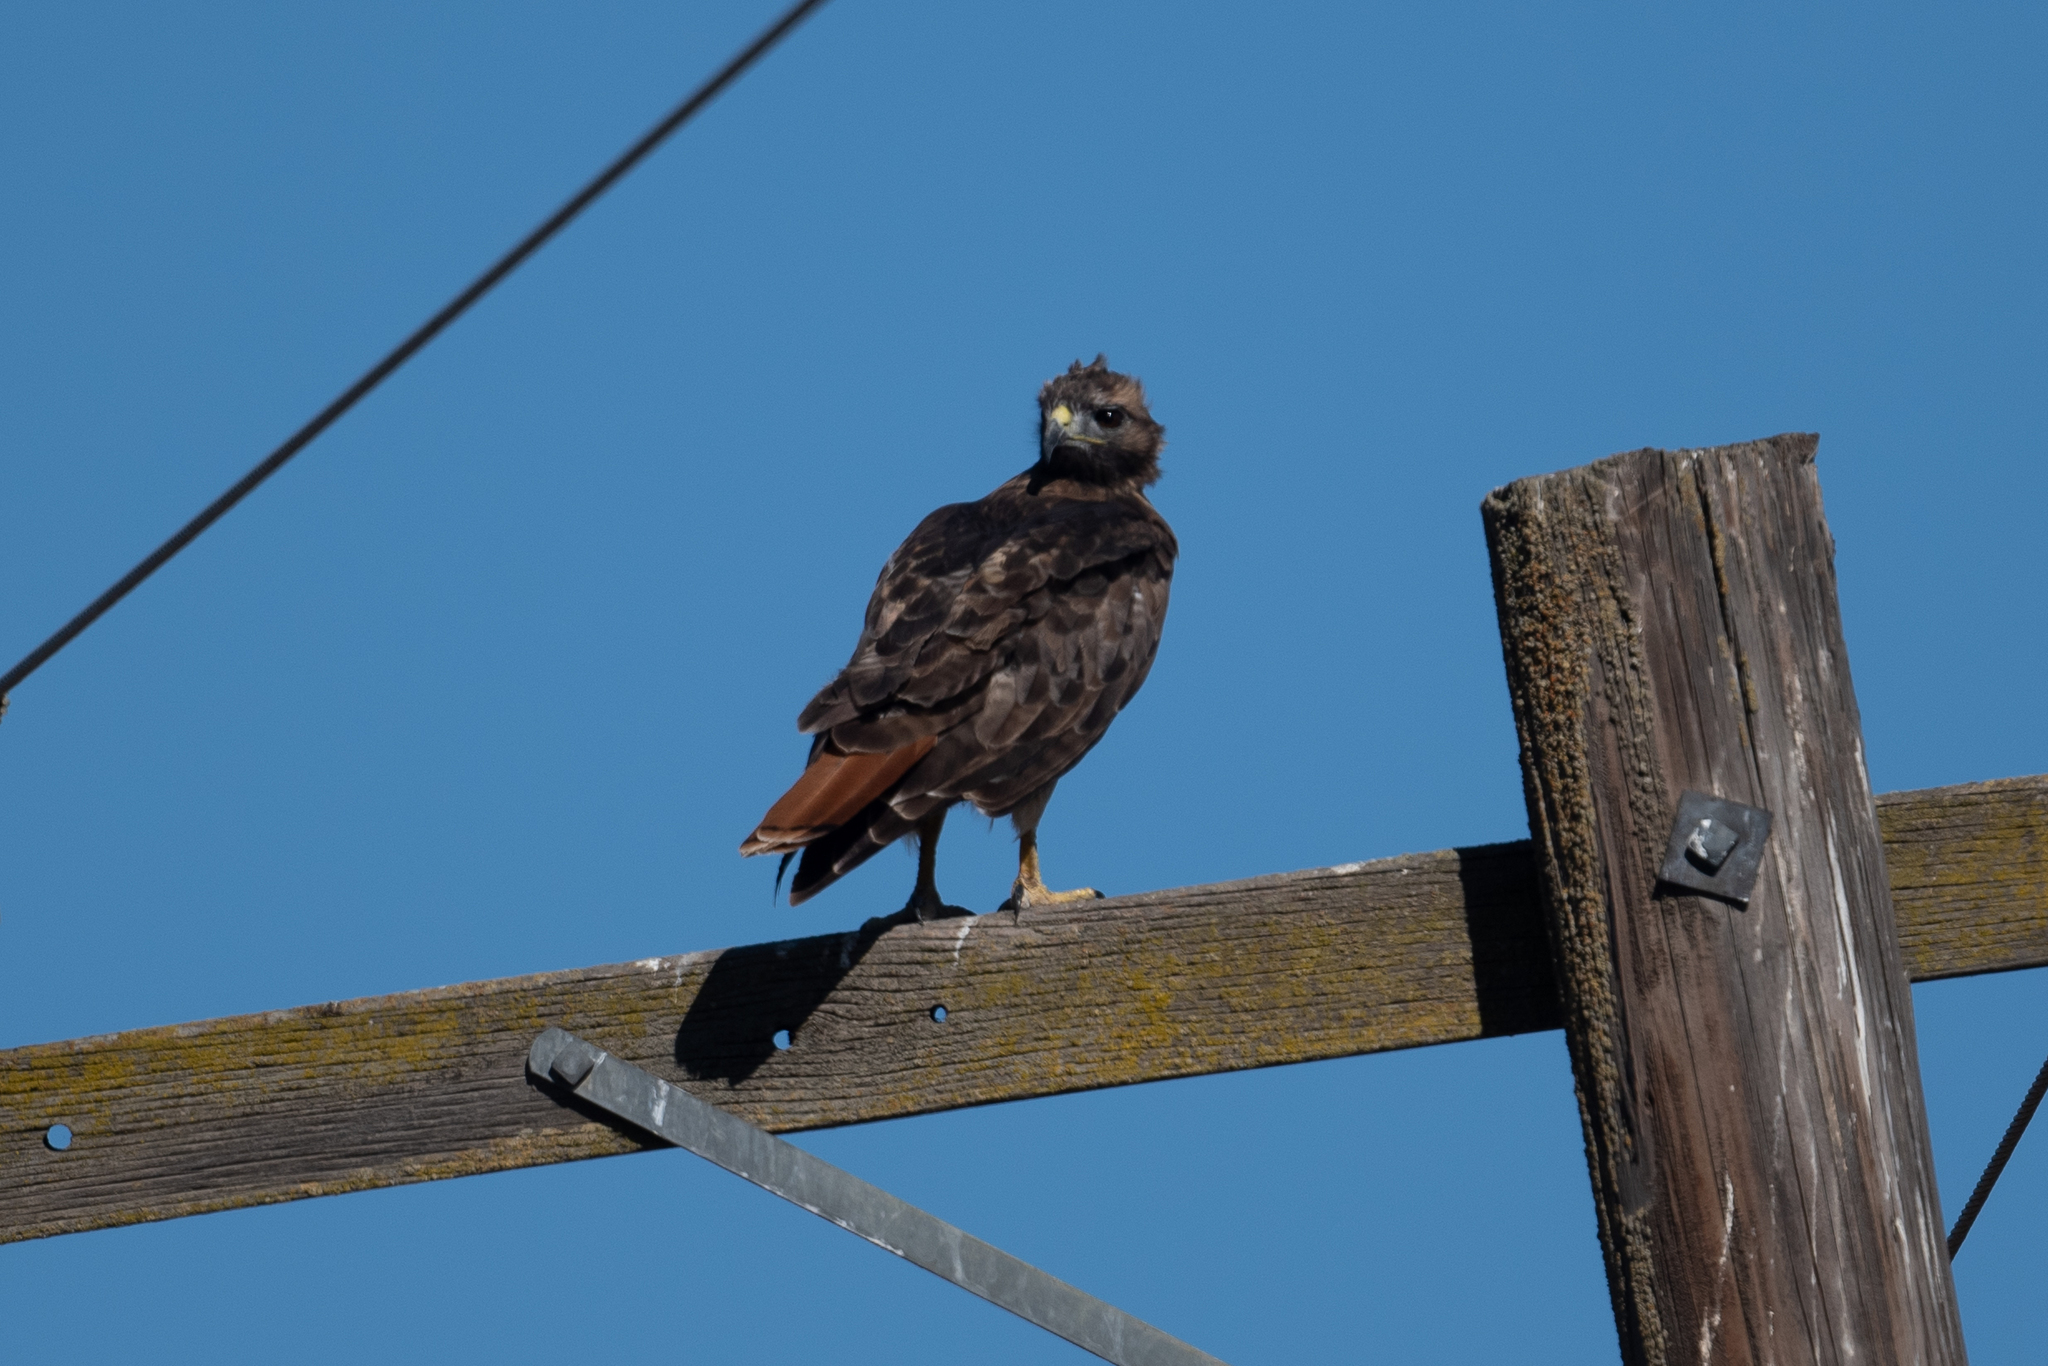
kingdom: Animalia
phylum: Chordata
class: Aves
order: Accipitriformes
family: Accipitridae
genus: Buteo
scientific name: Buteo jamaicensis
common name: Red-tailed hawk
